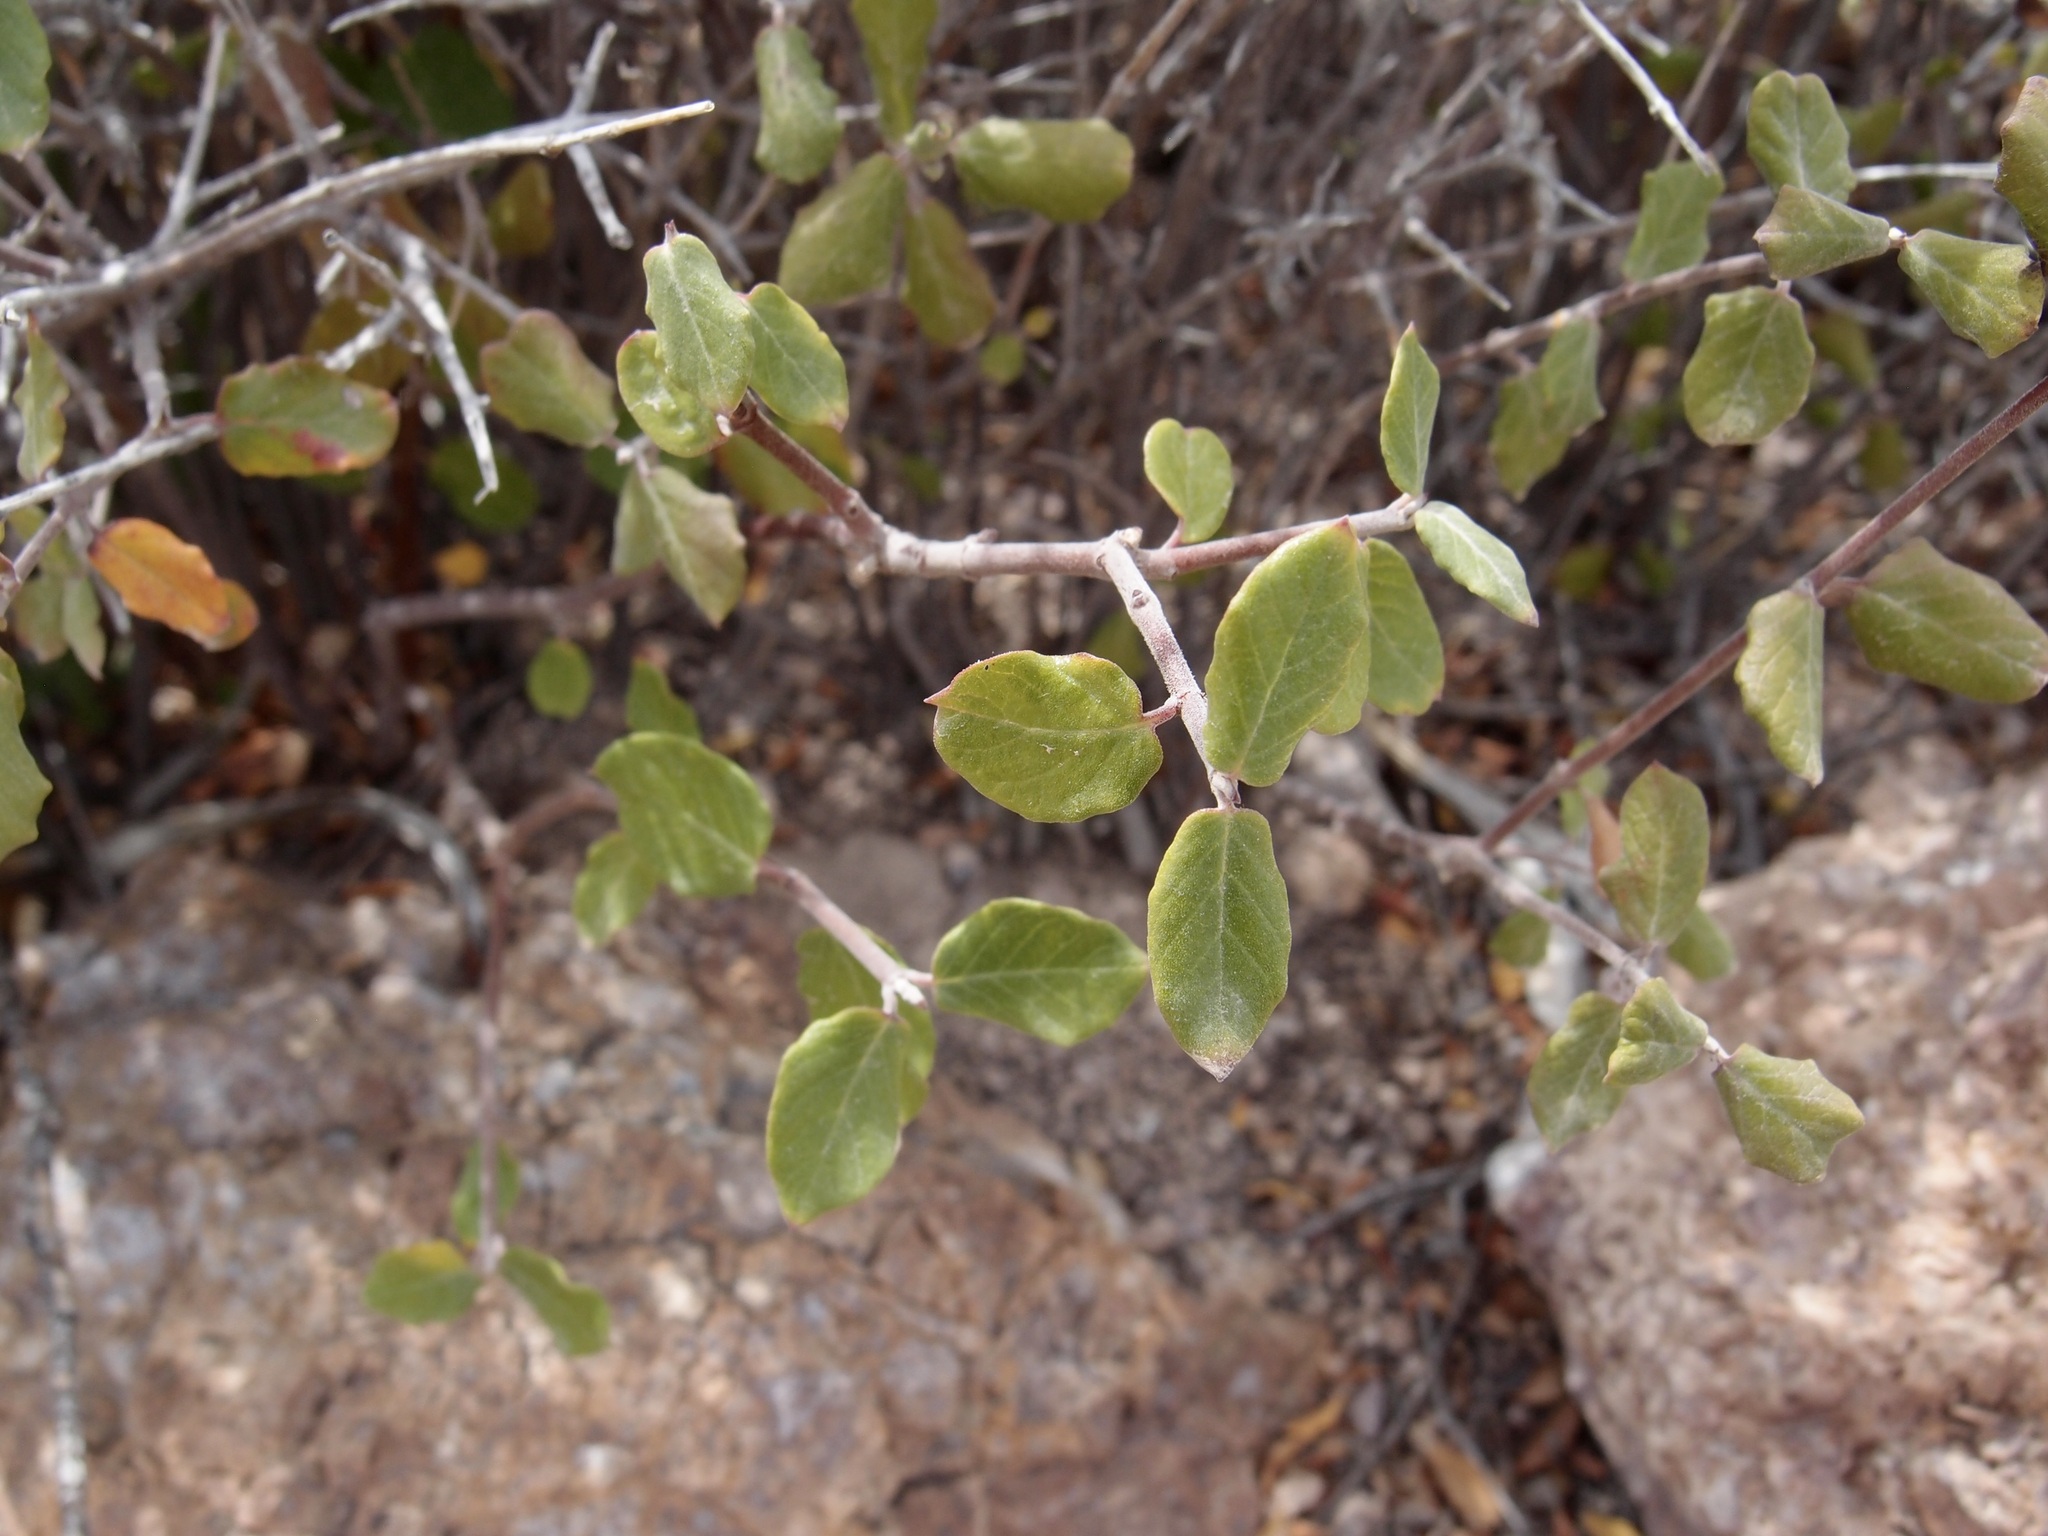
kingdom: Plantae
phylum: Tracheophyta
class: Magnoliopsida
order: Gentianales
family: Apocynaceae
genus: Mandevilla
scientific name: Mandevilla nacapulensis
